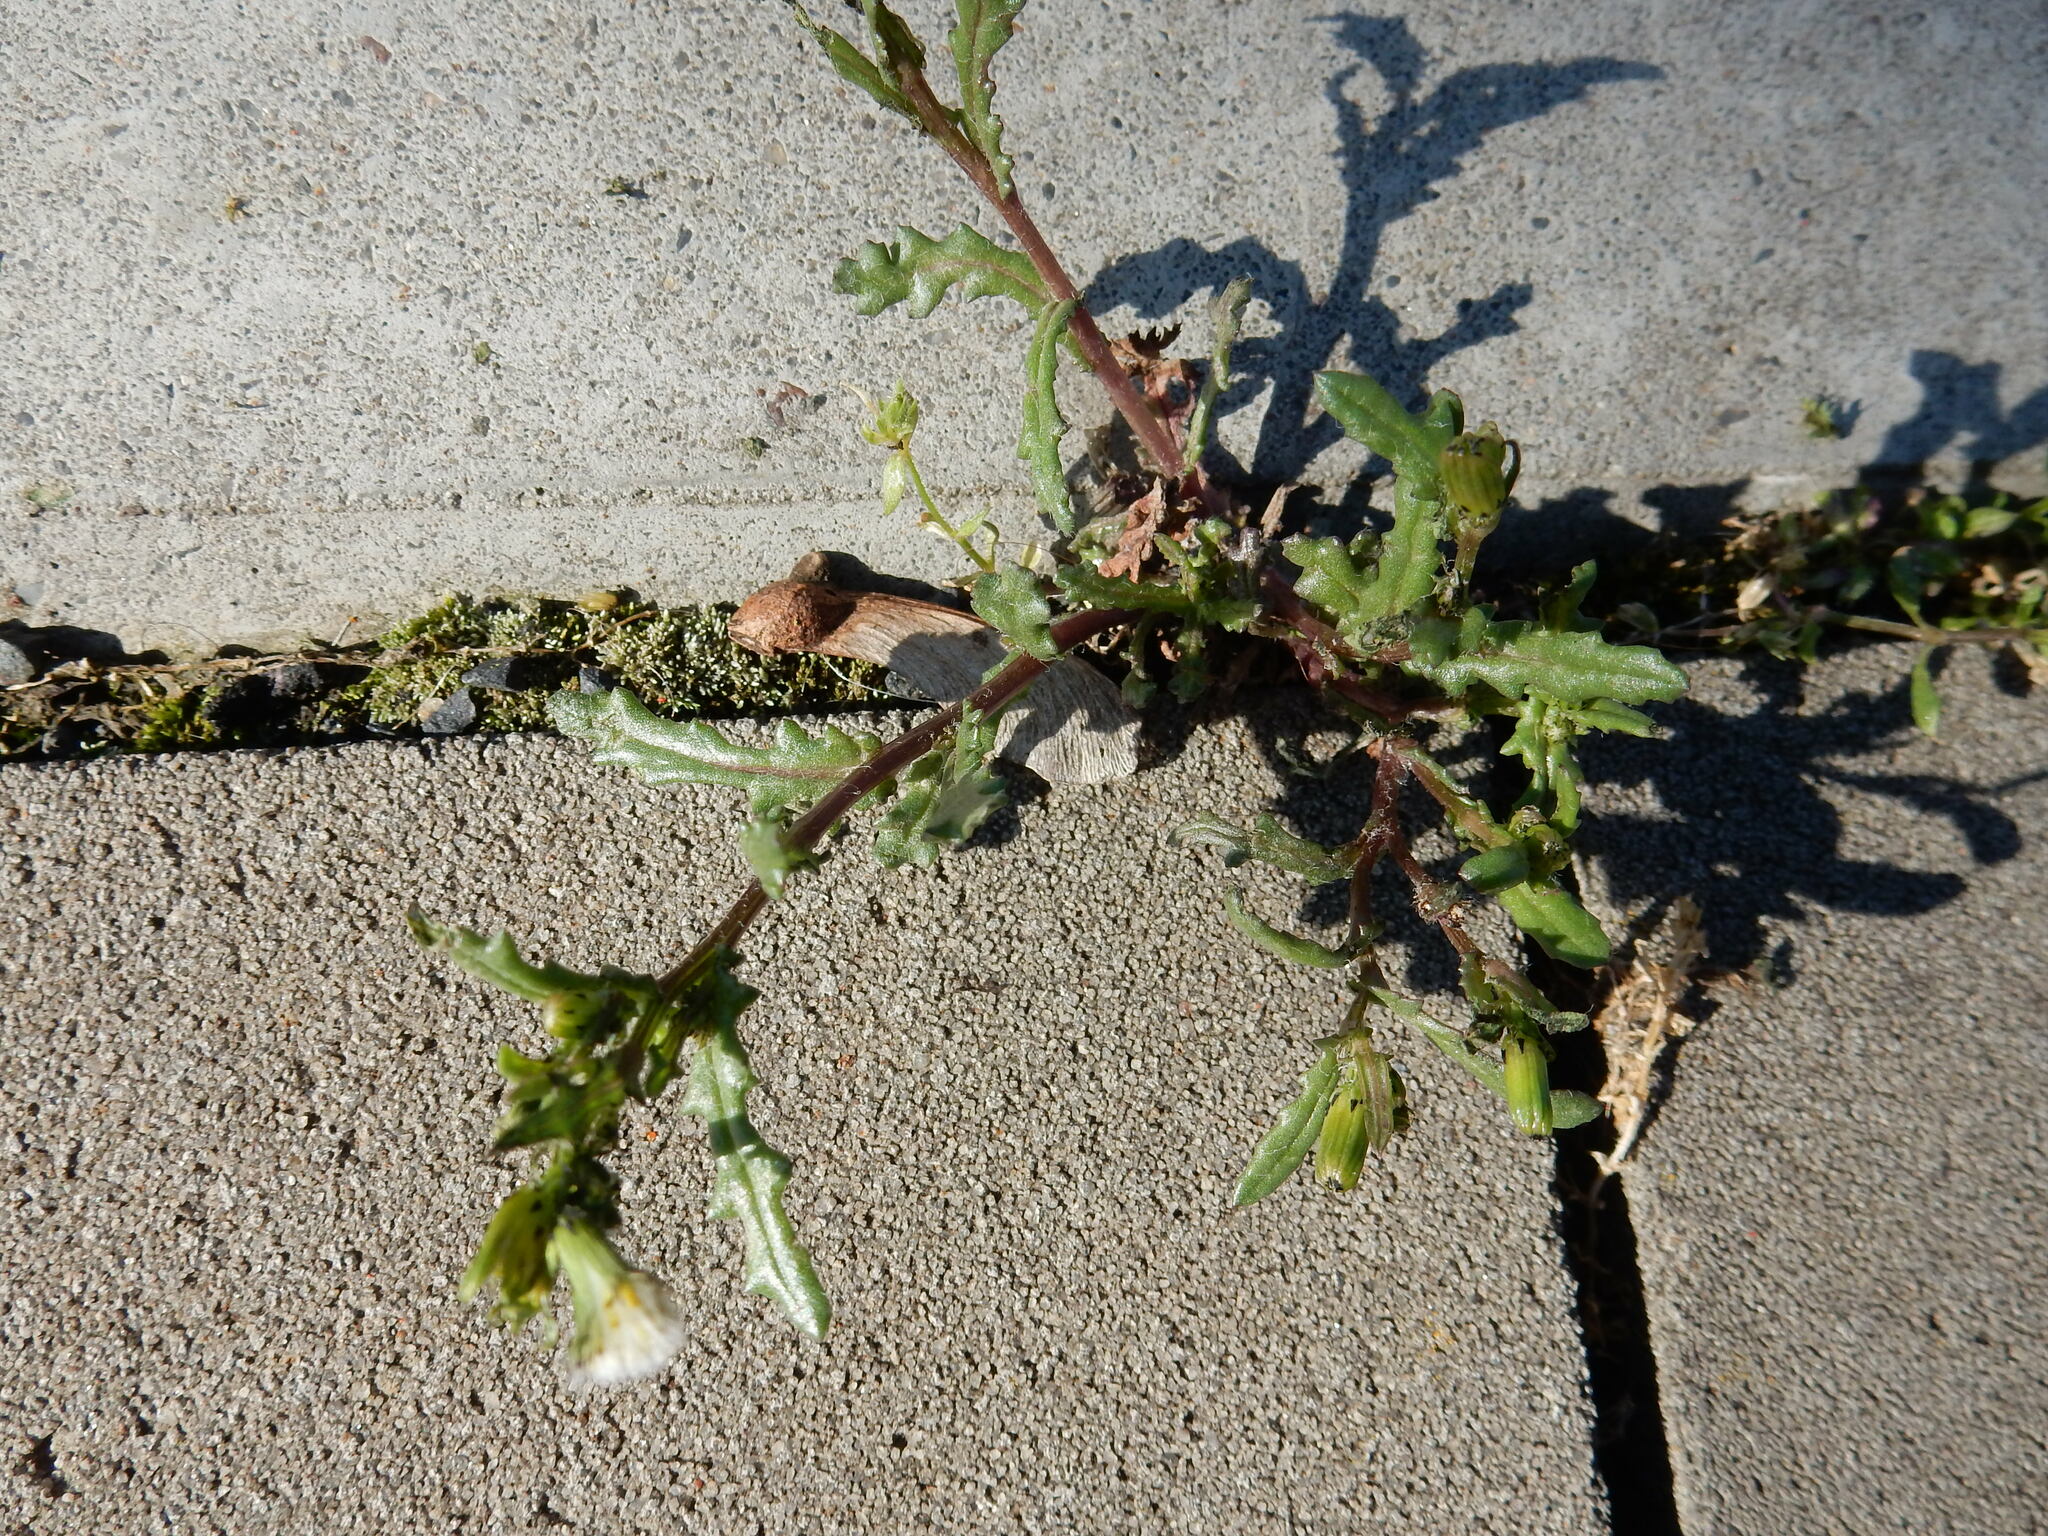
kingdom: Plantae
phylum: Tracheophyta
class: Magnoliopsida
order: Asterales
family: Asteraceae
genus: Senecio
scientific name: Senecio vulgaris
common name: Old-man-in-the-spring
